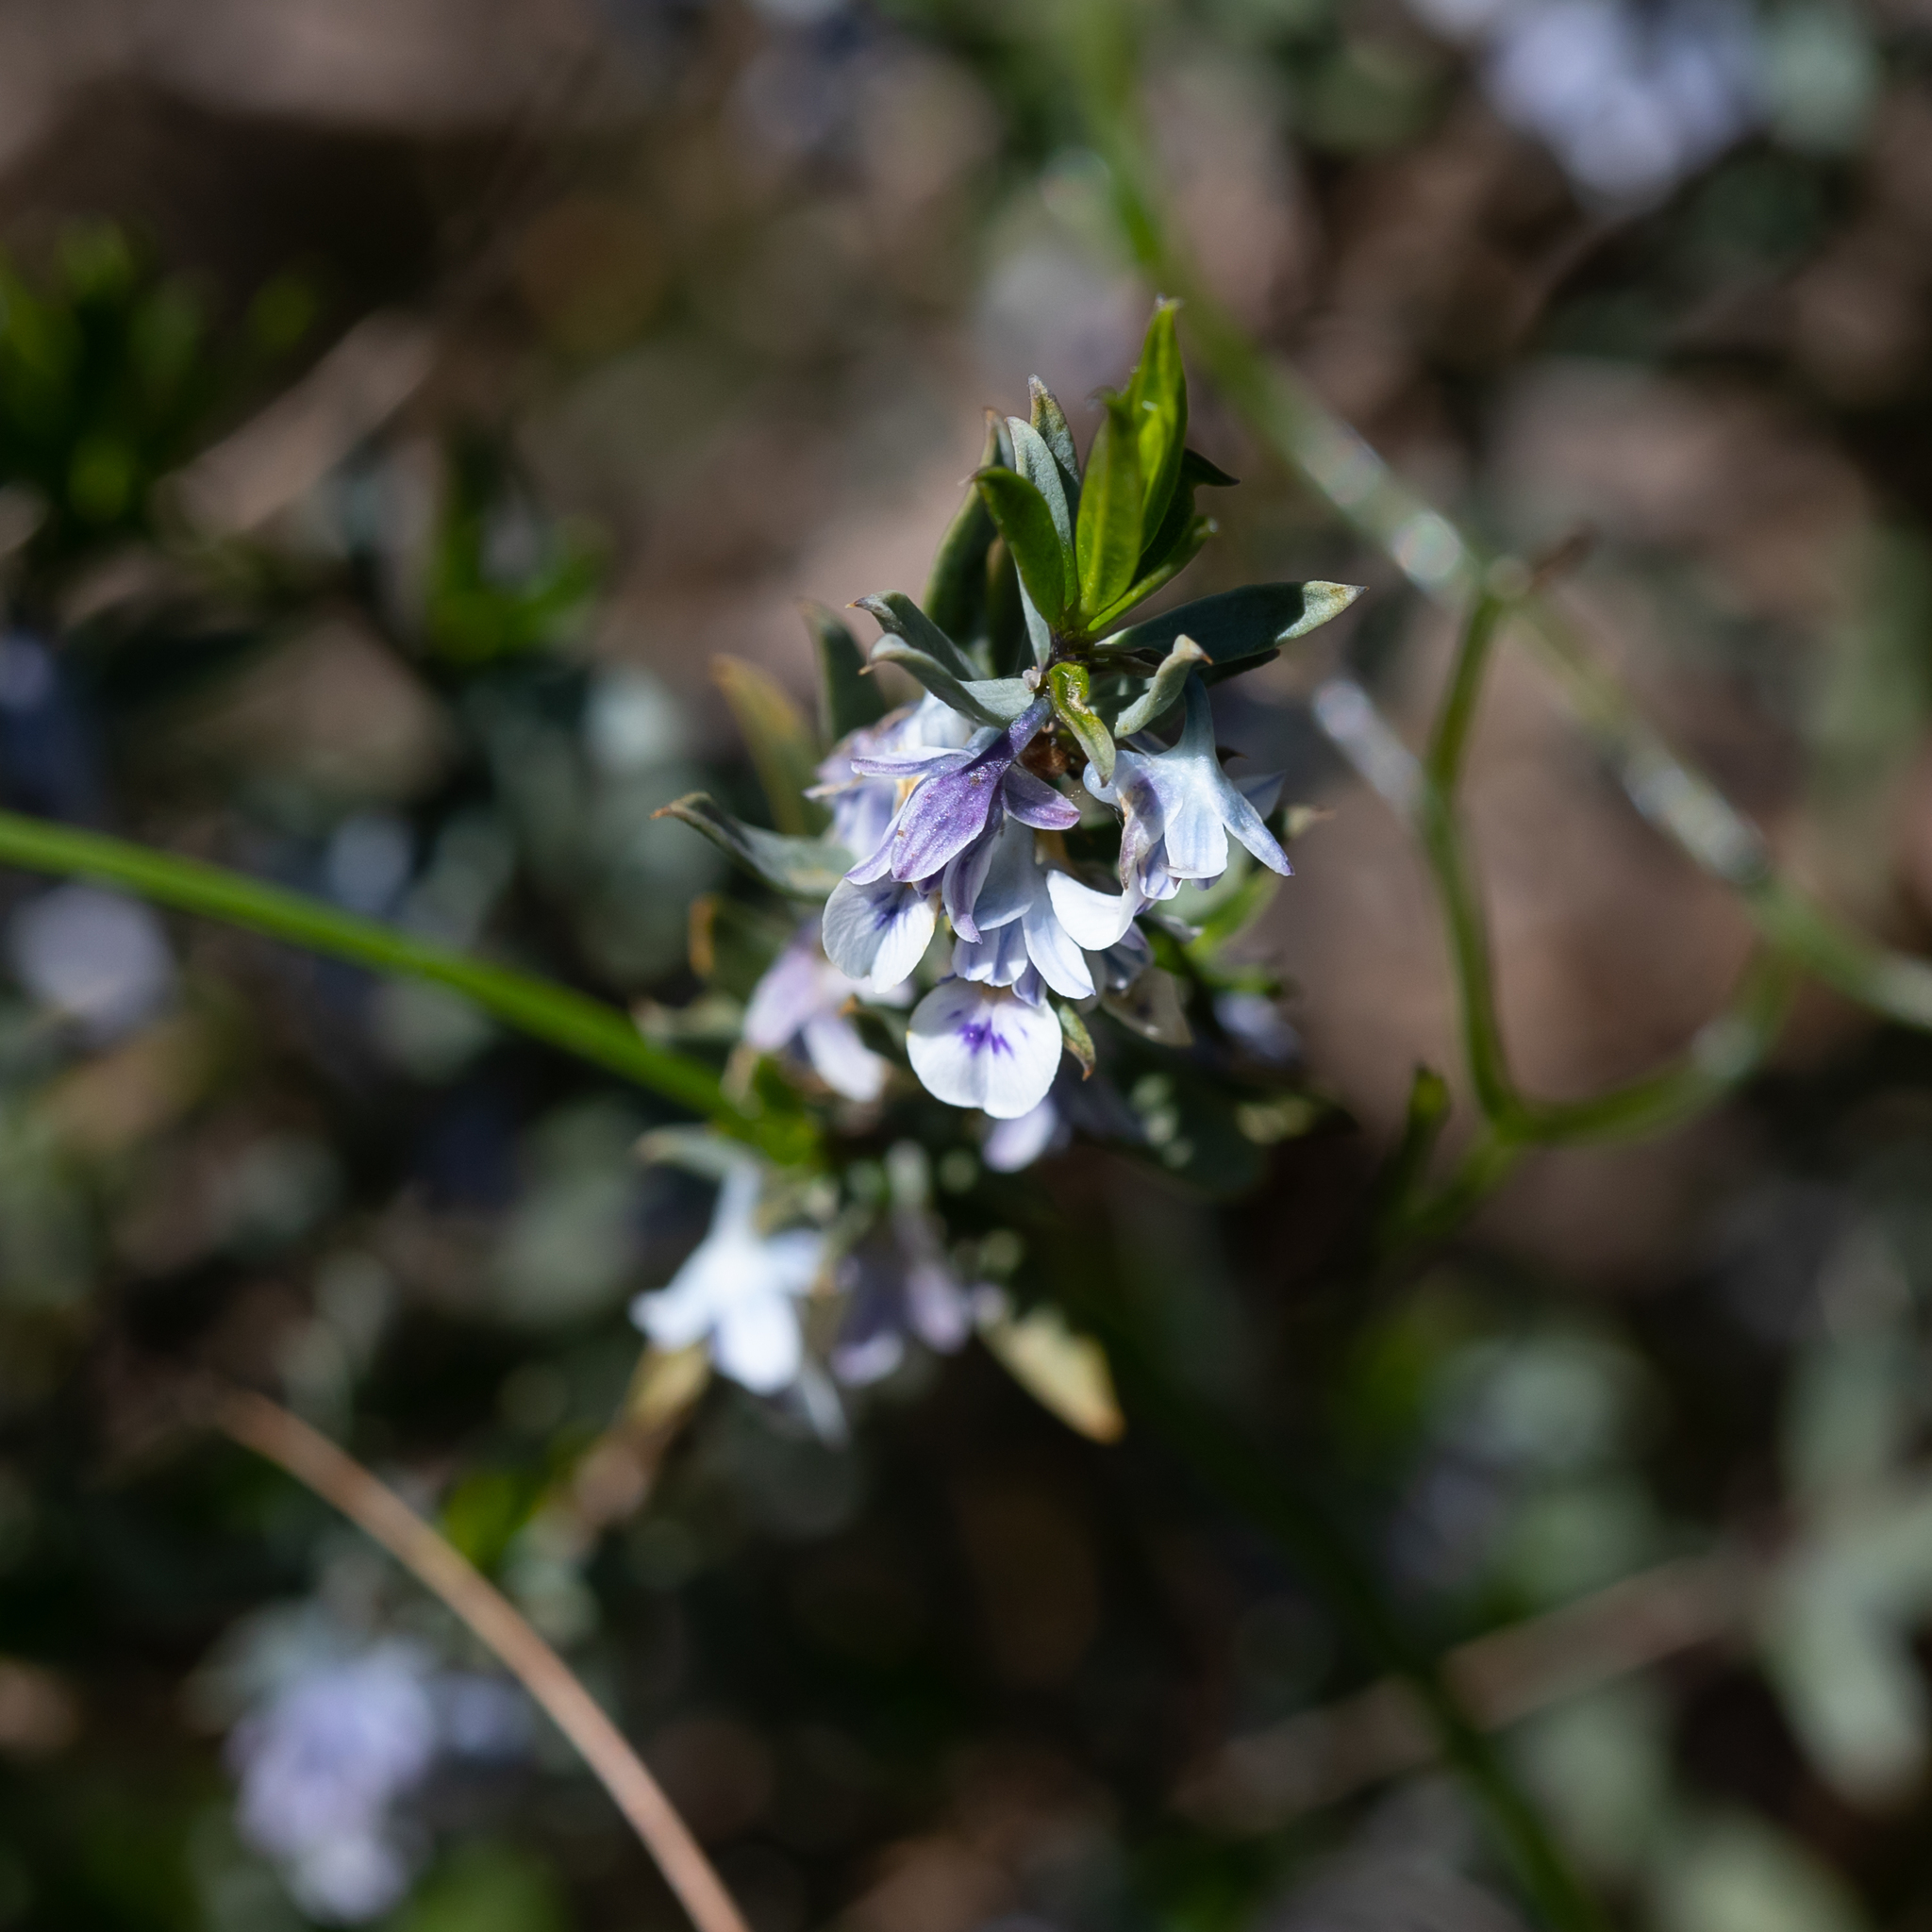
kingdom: Plantae
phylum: Tracheophyta
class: Magnoliopsida
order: Malpighiales
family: Violaceae
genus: Pigea
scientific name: Pigea floribunda
